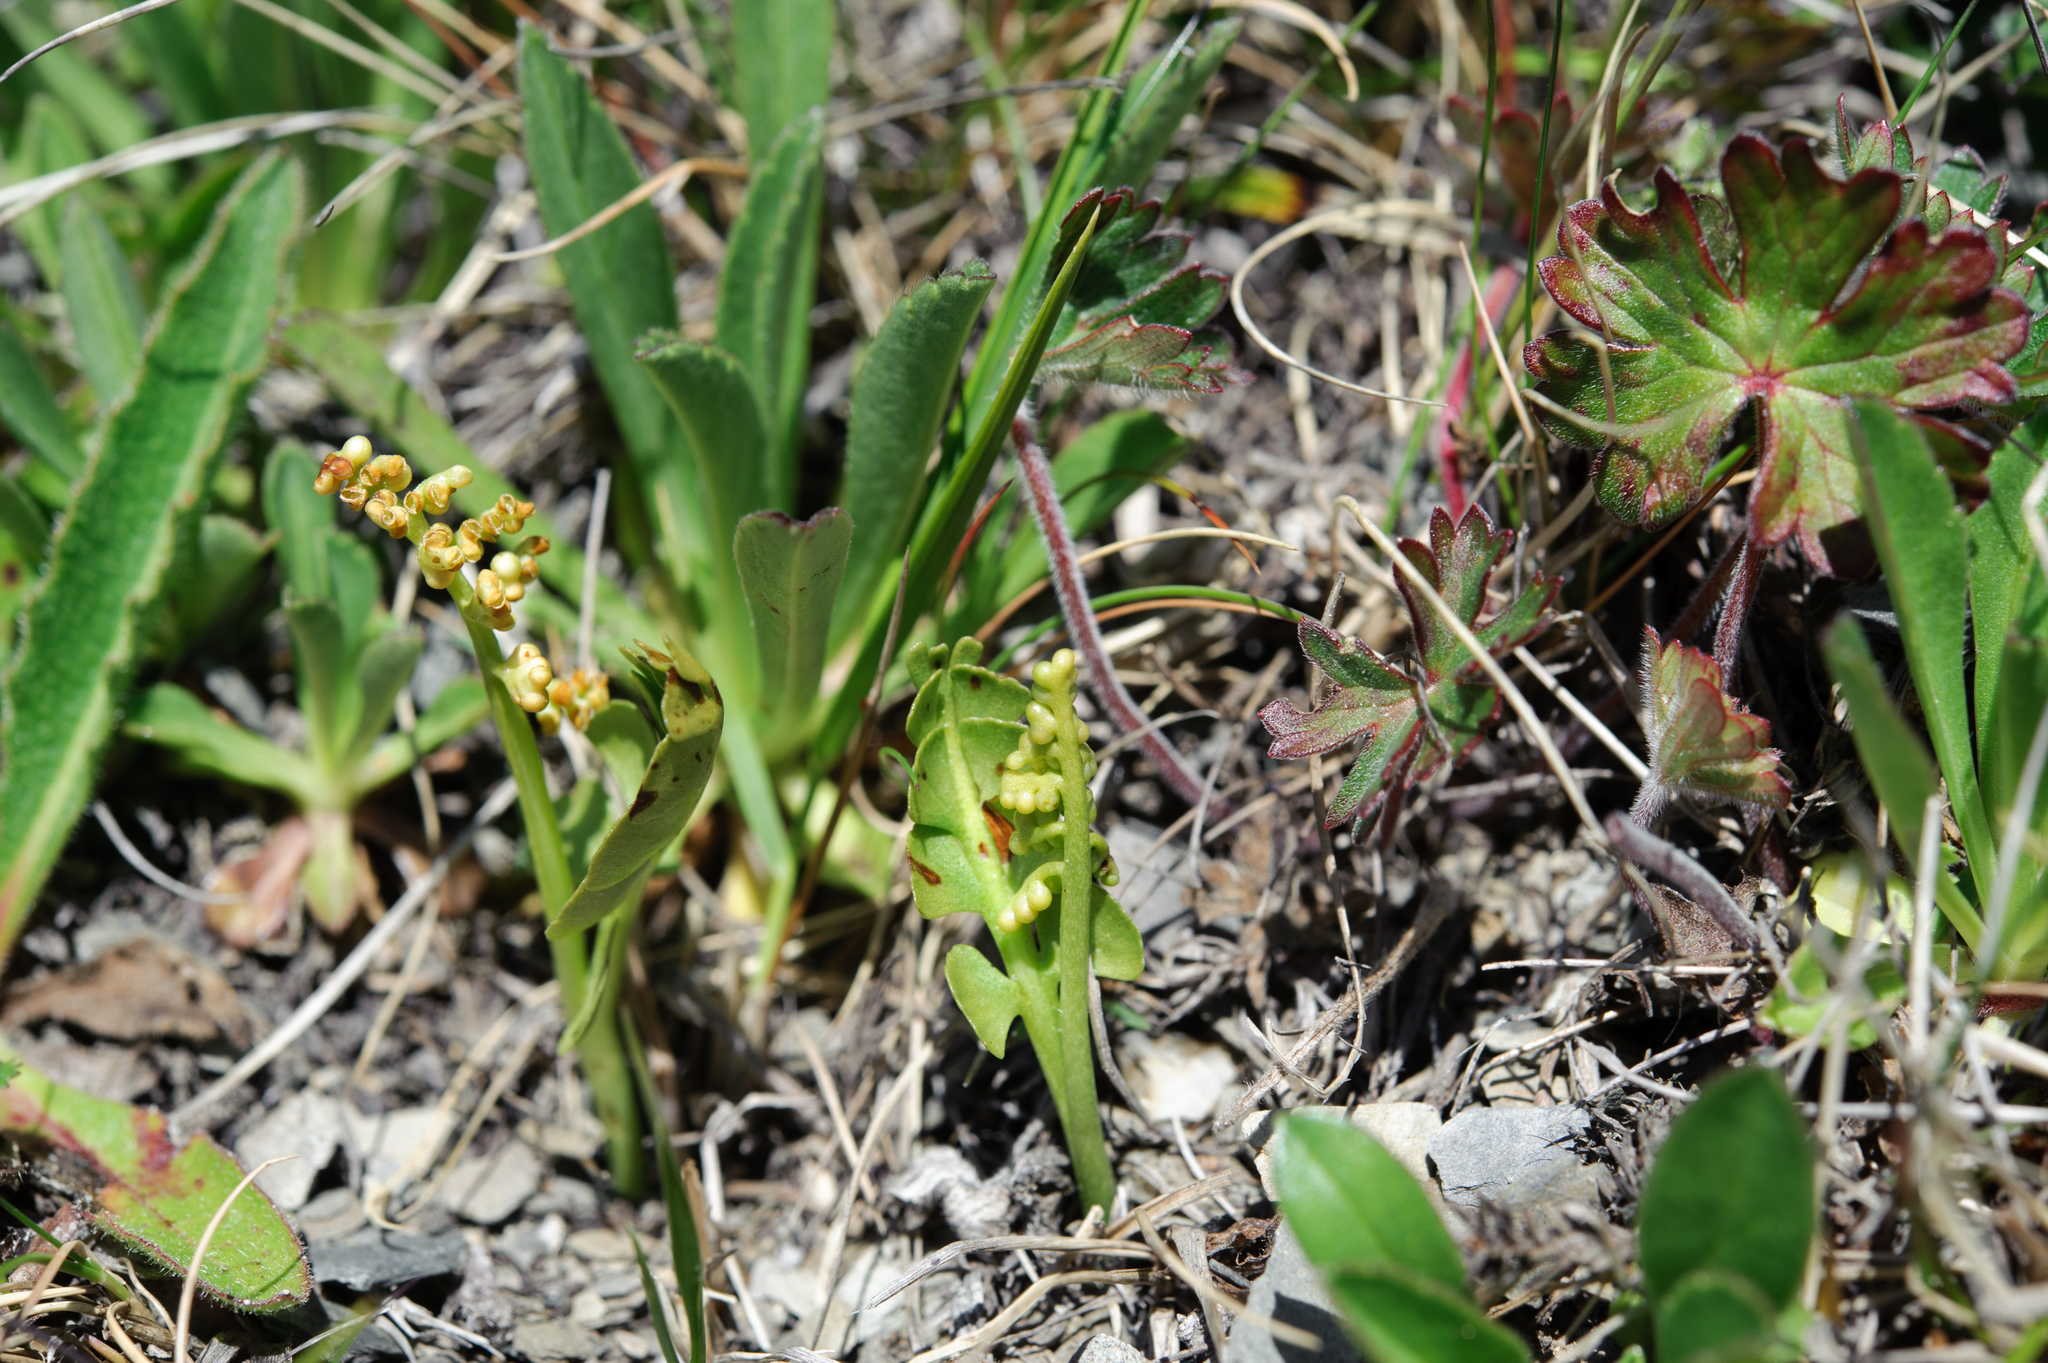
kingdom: Plantae
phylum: Tracheophyta
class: Polypodiopsida
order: Ophioglossales
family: Ophioglossaceae
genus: Botrychium
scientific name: Botrychium lunaria
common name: Moonwort
